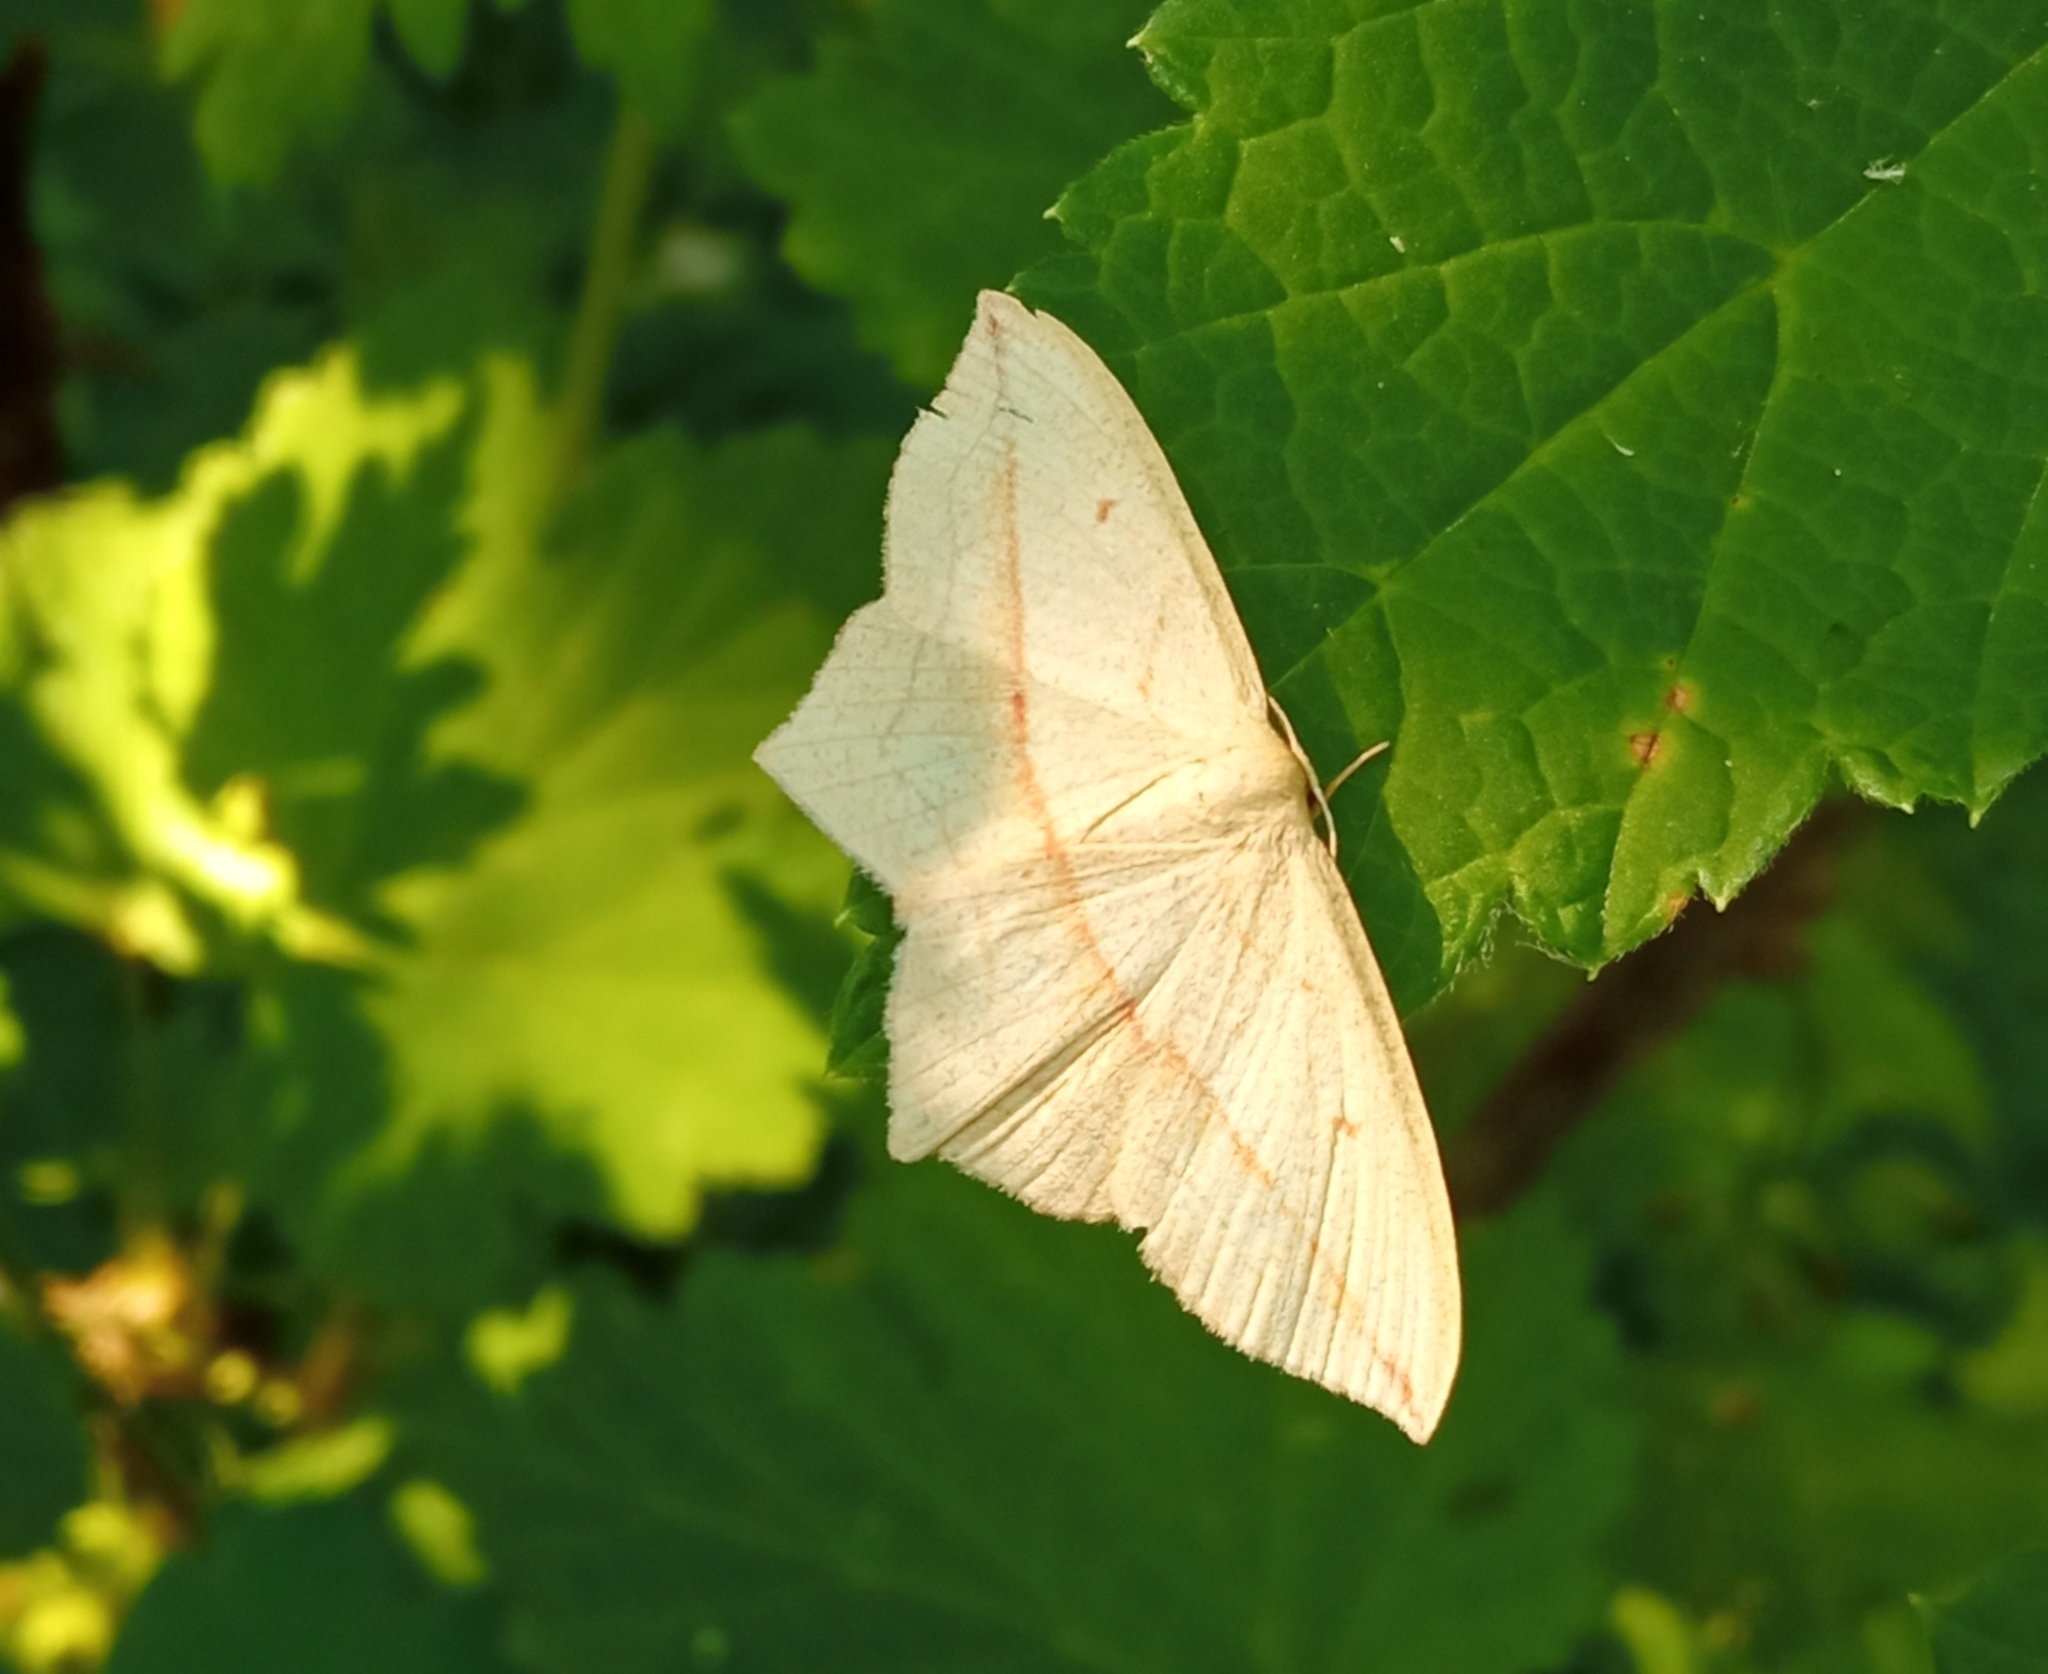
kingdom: Animalia
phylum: Arthropoda
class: Insecta
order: Lepidoptera
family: Geometridae
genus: Timandra
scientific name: Timandra comae
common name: Blood-vein
